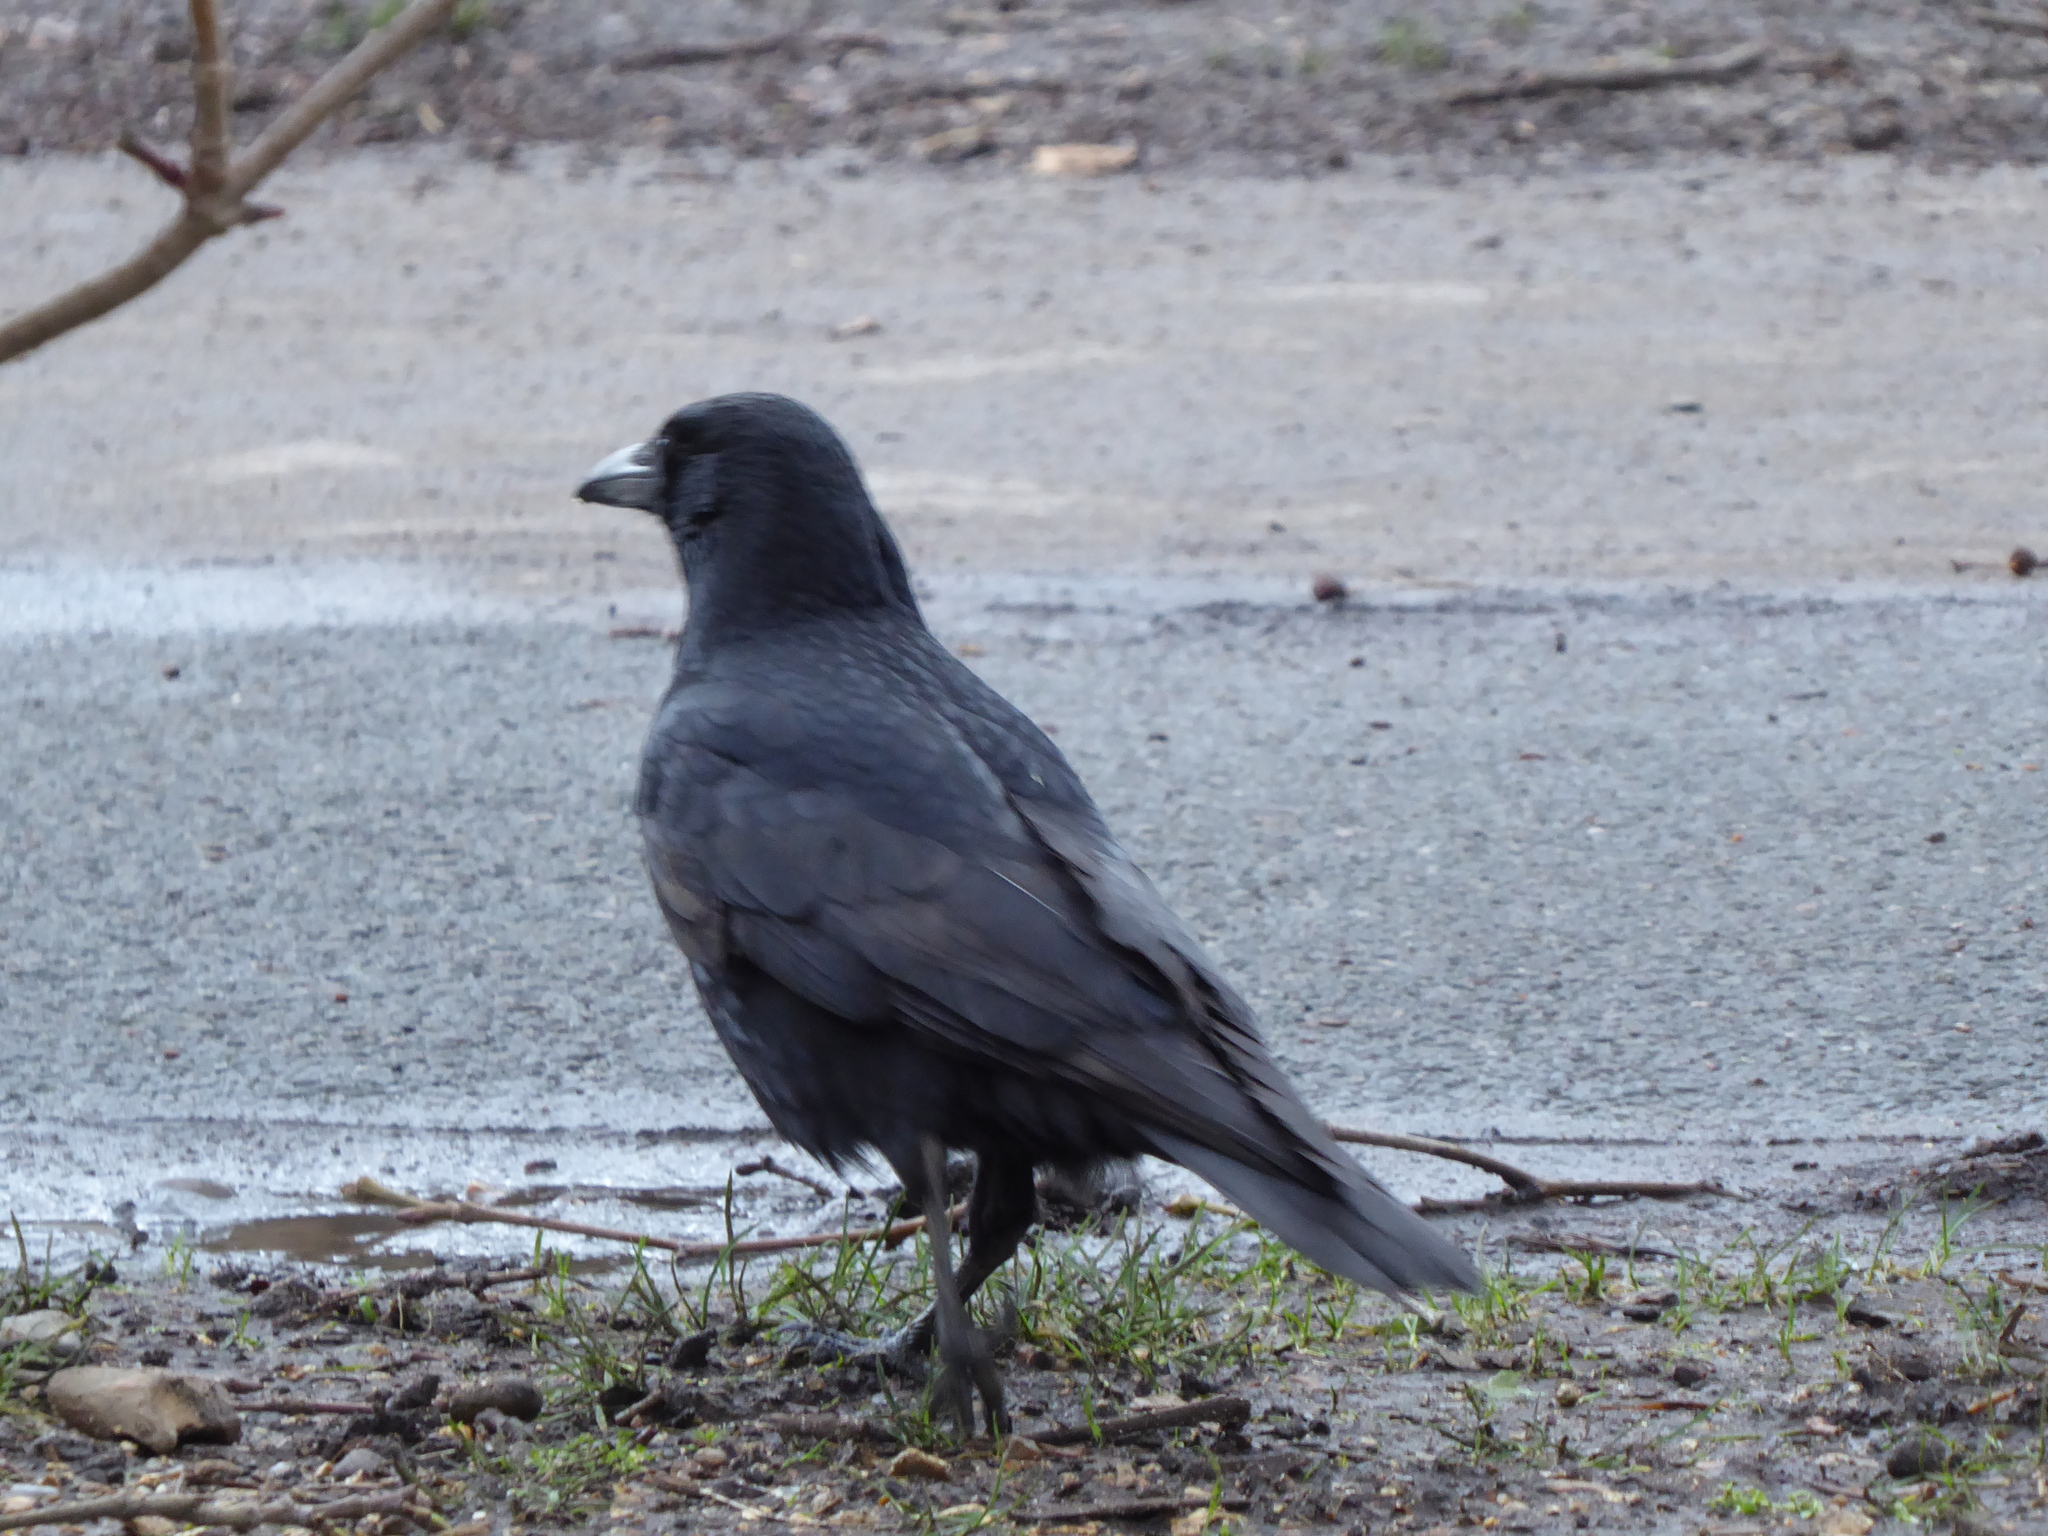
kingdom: Animalia
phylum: Chordata
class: Aves
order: Passeriformes
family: Corvidae
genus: Corvus
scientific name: Corvus corone
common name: Carrion crow
